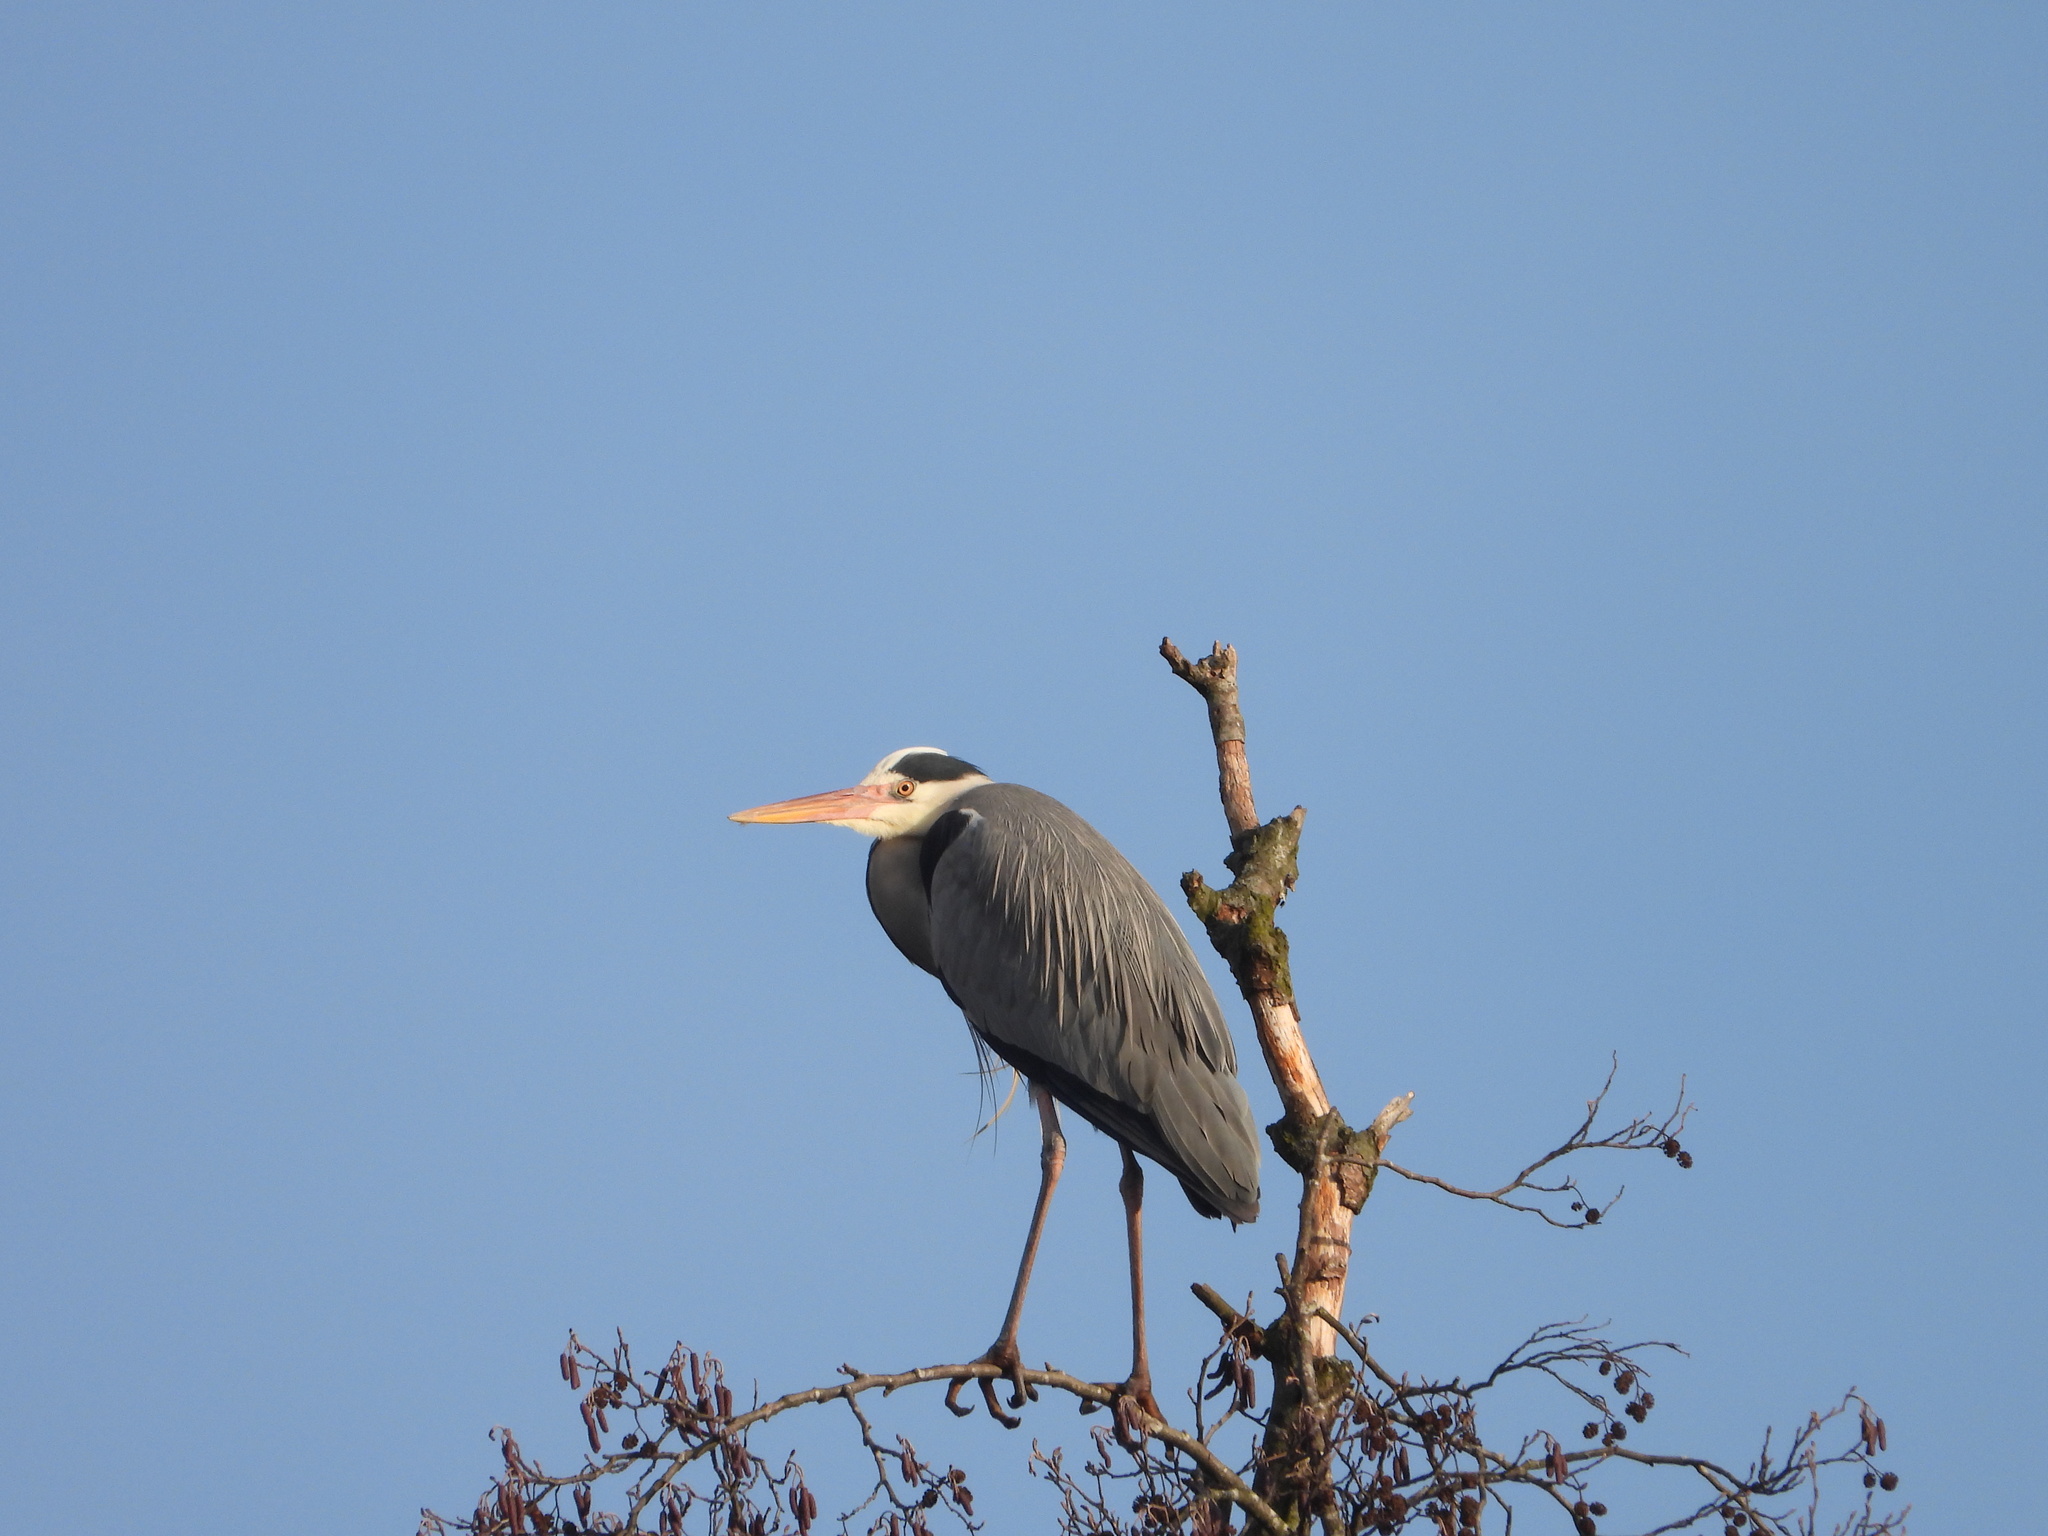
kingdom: Animalia
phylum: Chordata
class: Aves
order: Pelecaniformes
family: Ardeidae
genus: Ardea
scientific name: Ardea cinerea
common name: Grey heron
